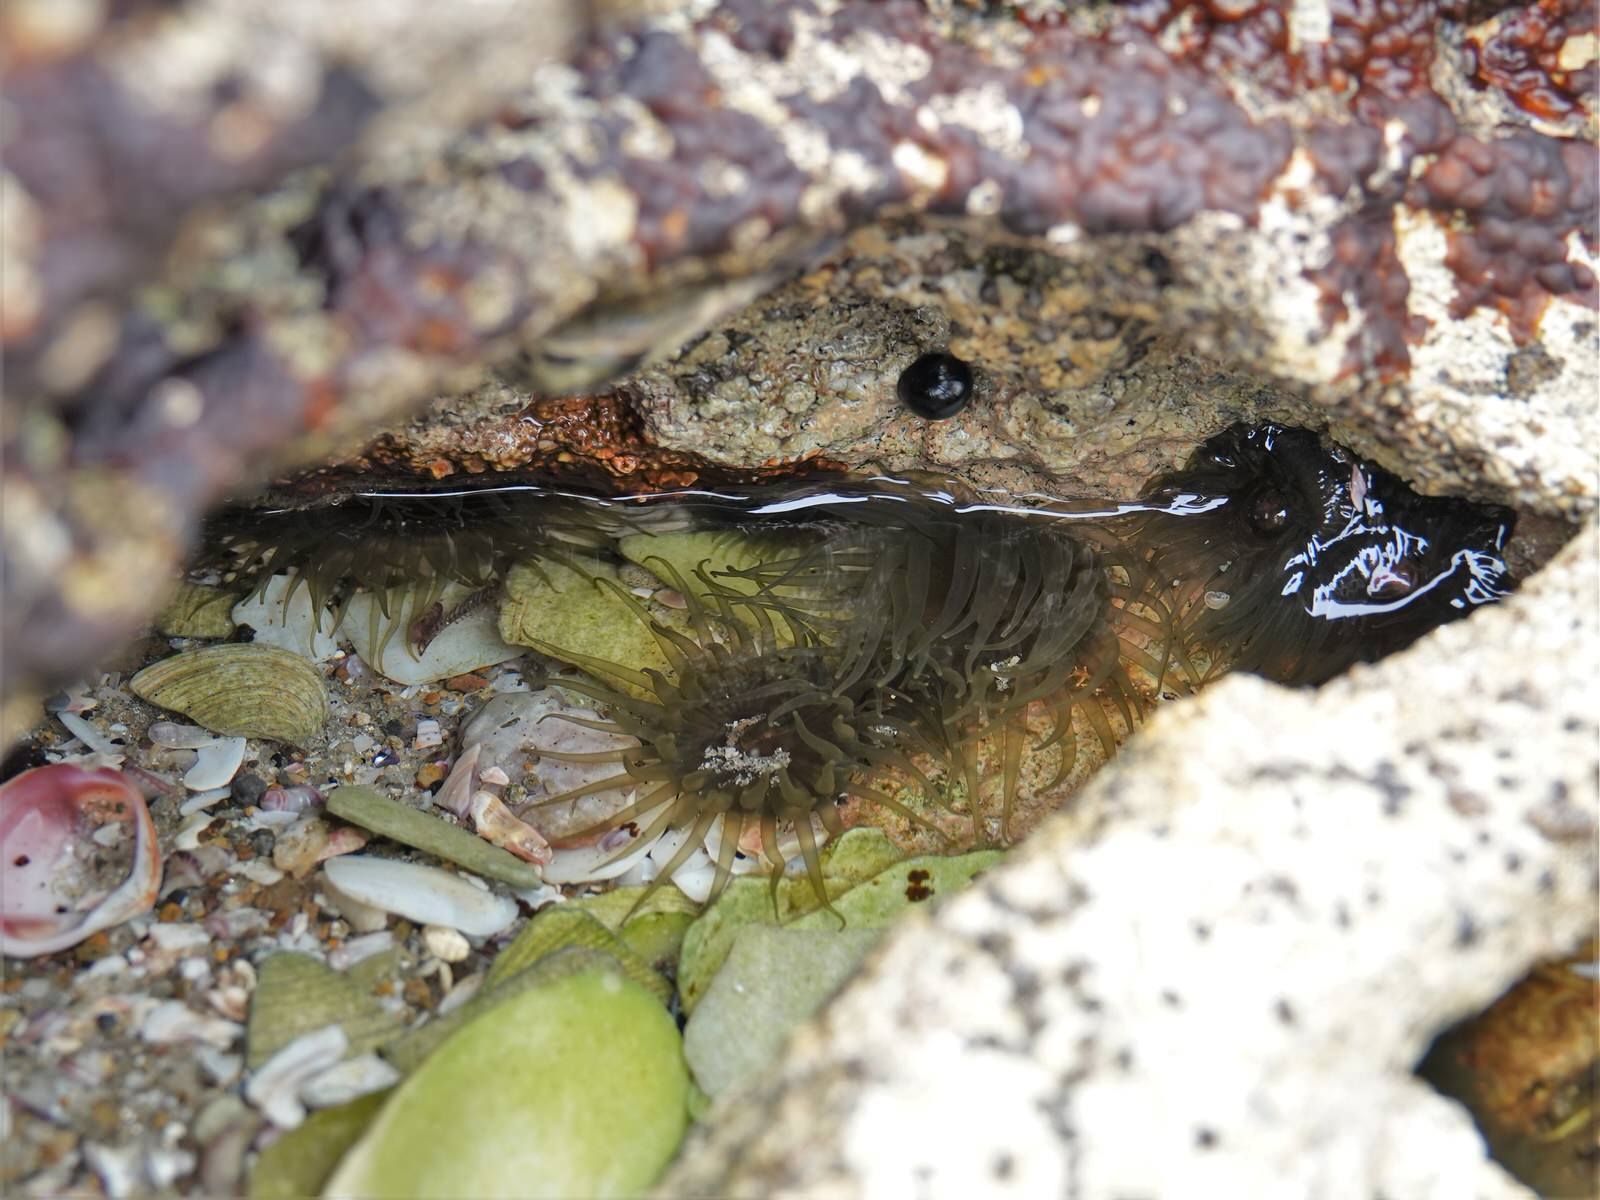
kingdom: Animalia
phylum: Cnidaria
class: Anthozoa
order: Actiniaria
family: Actiniidae
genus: Isactinia
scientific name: Isactinia olivacea
